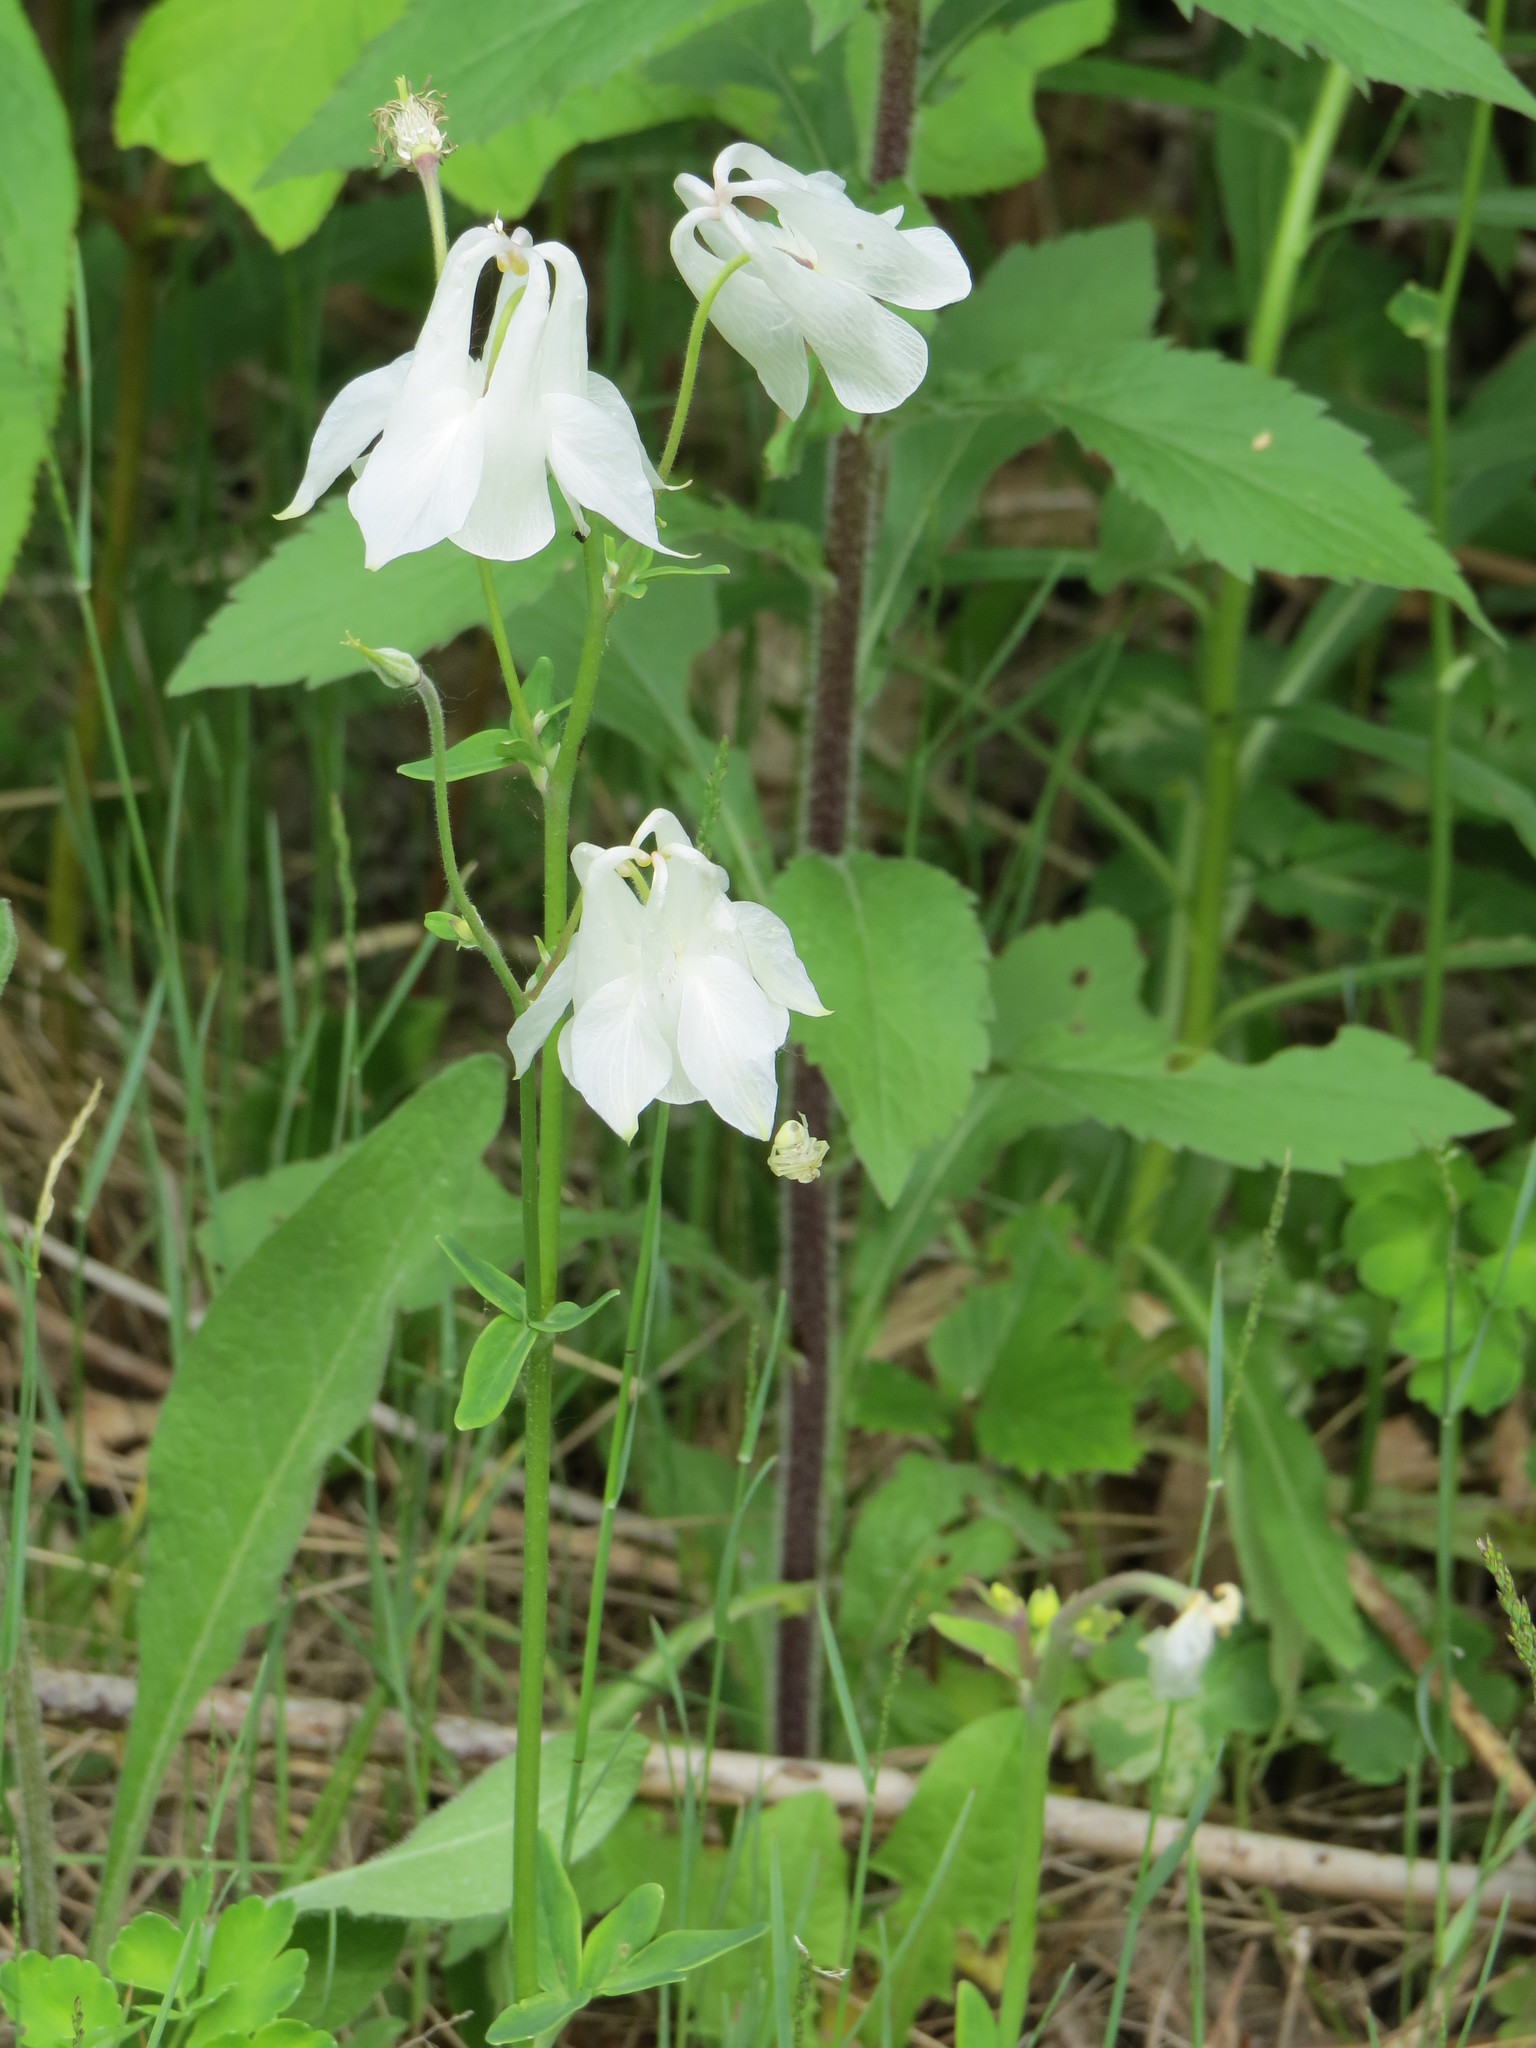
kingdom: Plantae
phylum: Tracheophyta
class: Magnoliopsida
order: Ranunculales
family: Ranunculaceae
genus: Aquilegia
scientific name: Aquilegia vulgaris
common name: Columbine
